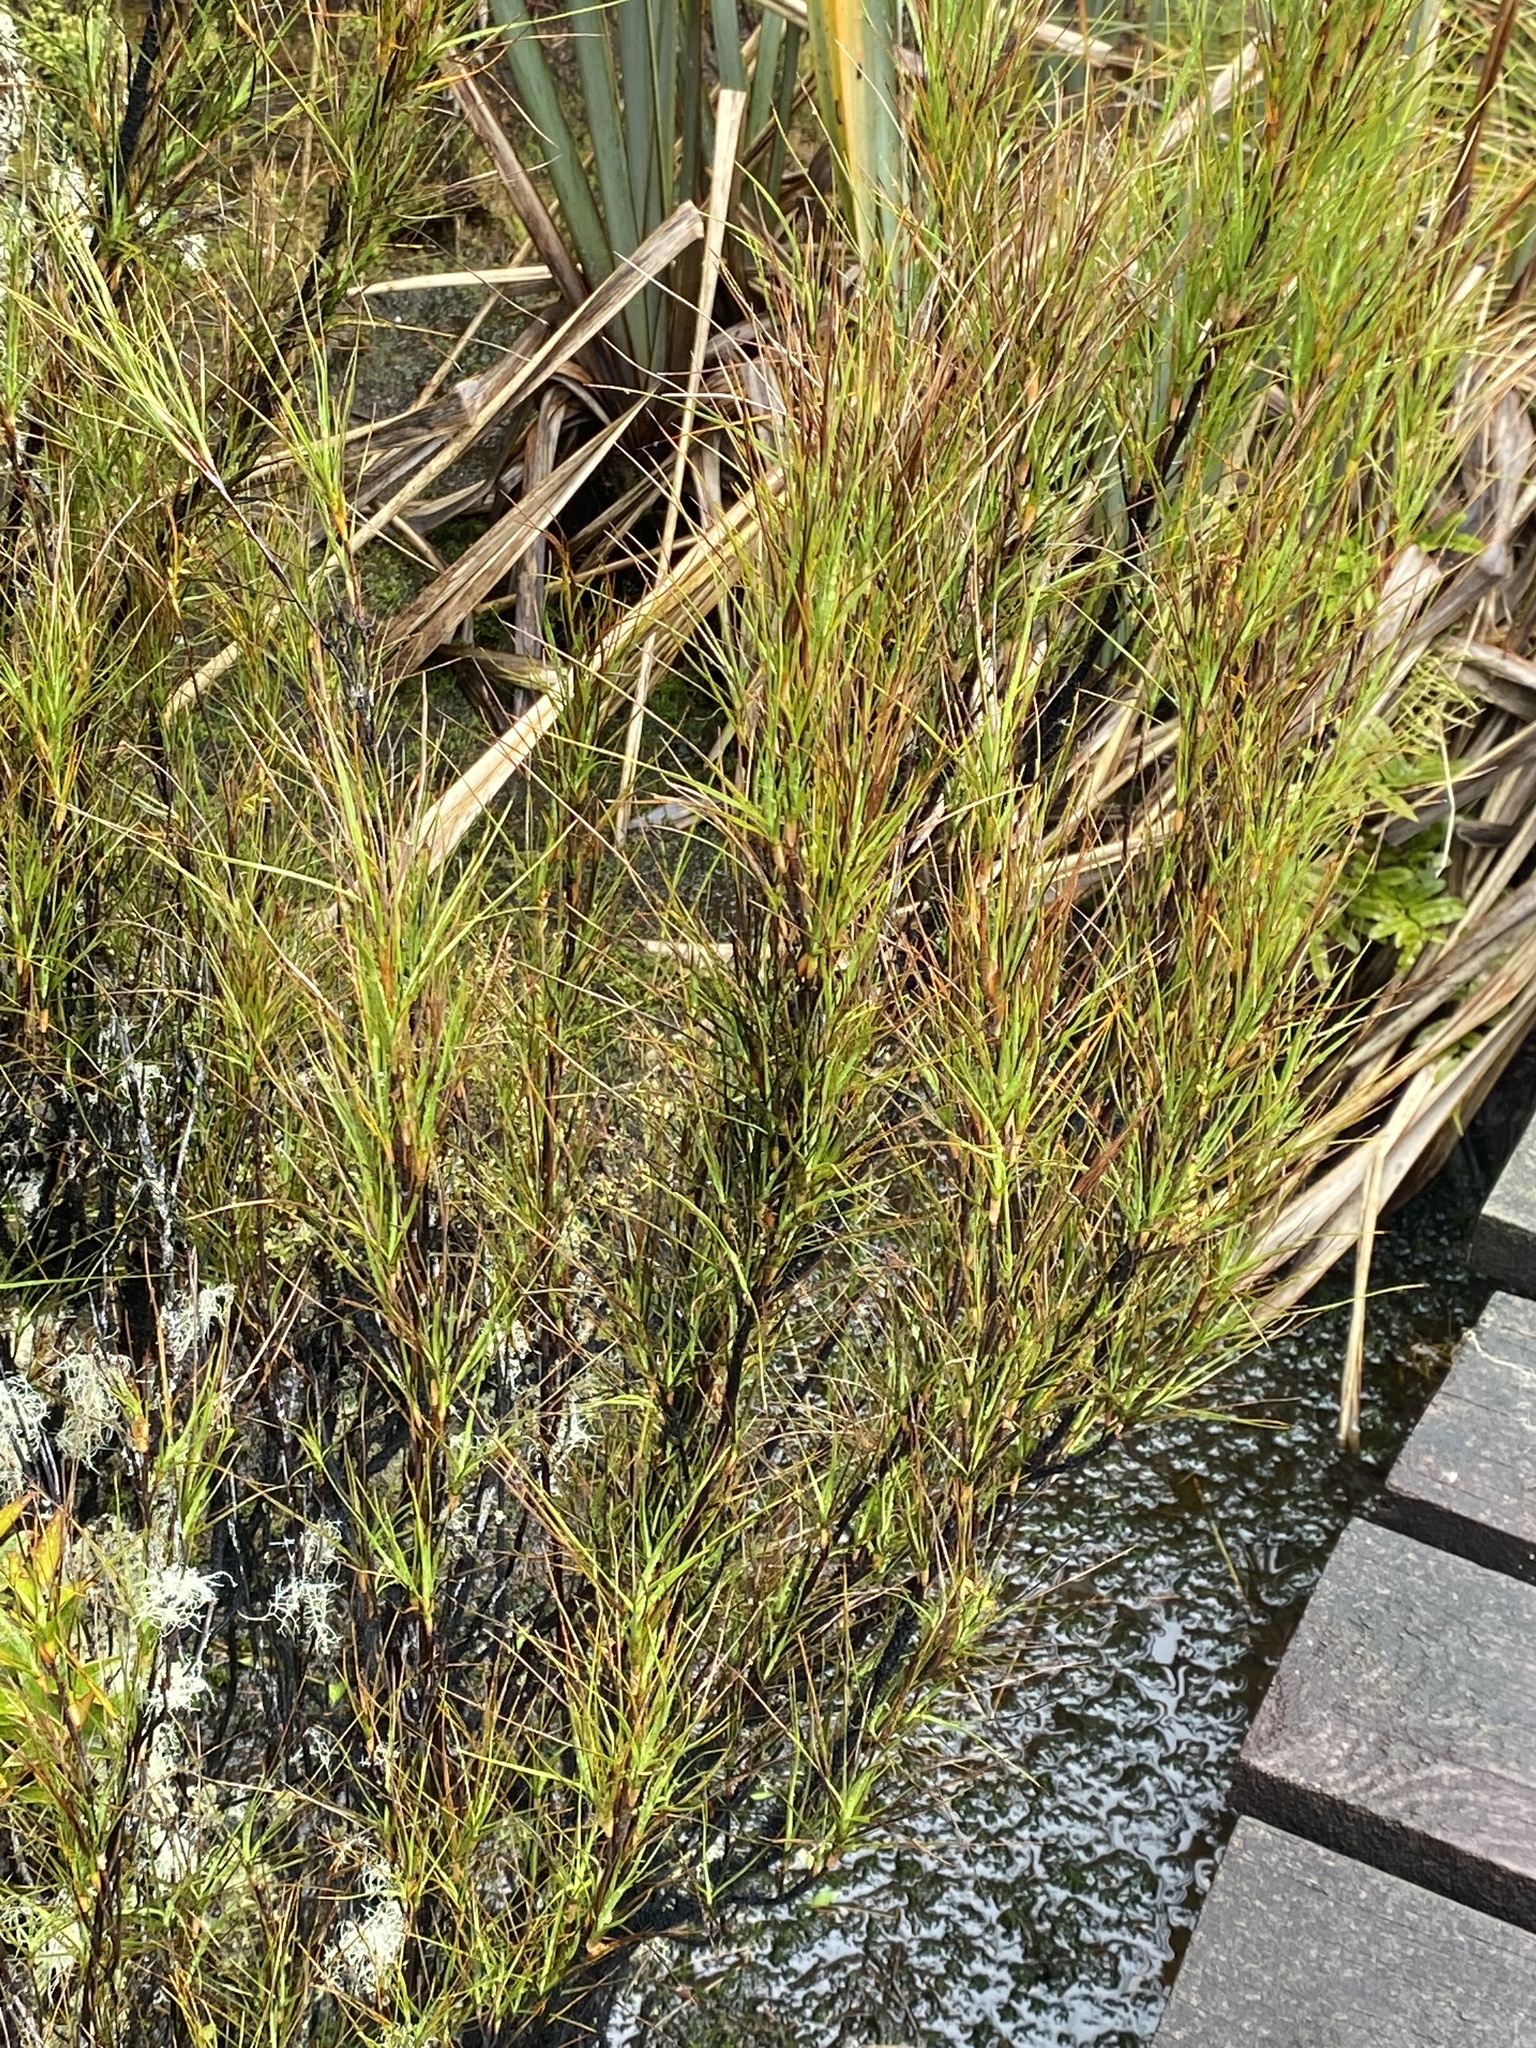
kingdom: Plantae
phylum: Tracheophyta
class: Magnoliopsida
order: Ericales
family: Ericaceae
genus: Dracophyllum
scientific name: Dracophyllum longifolium
